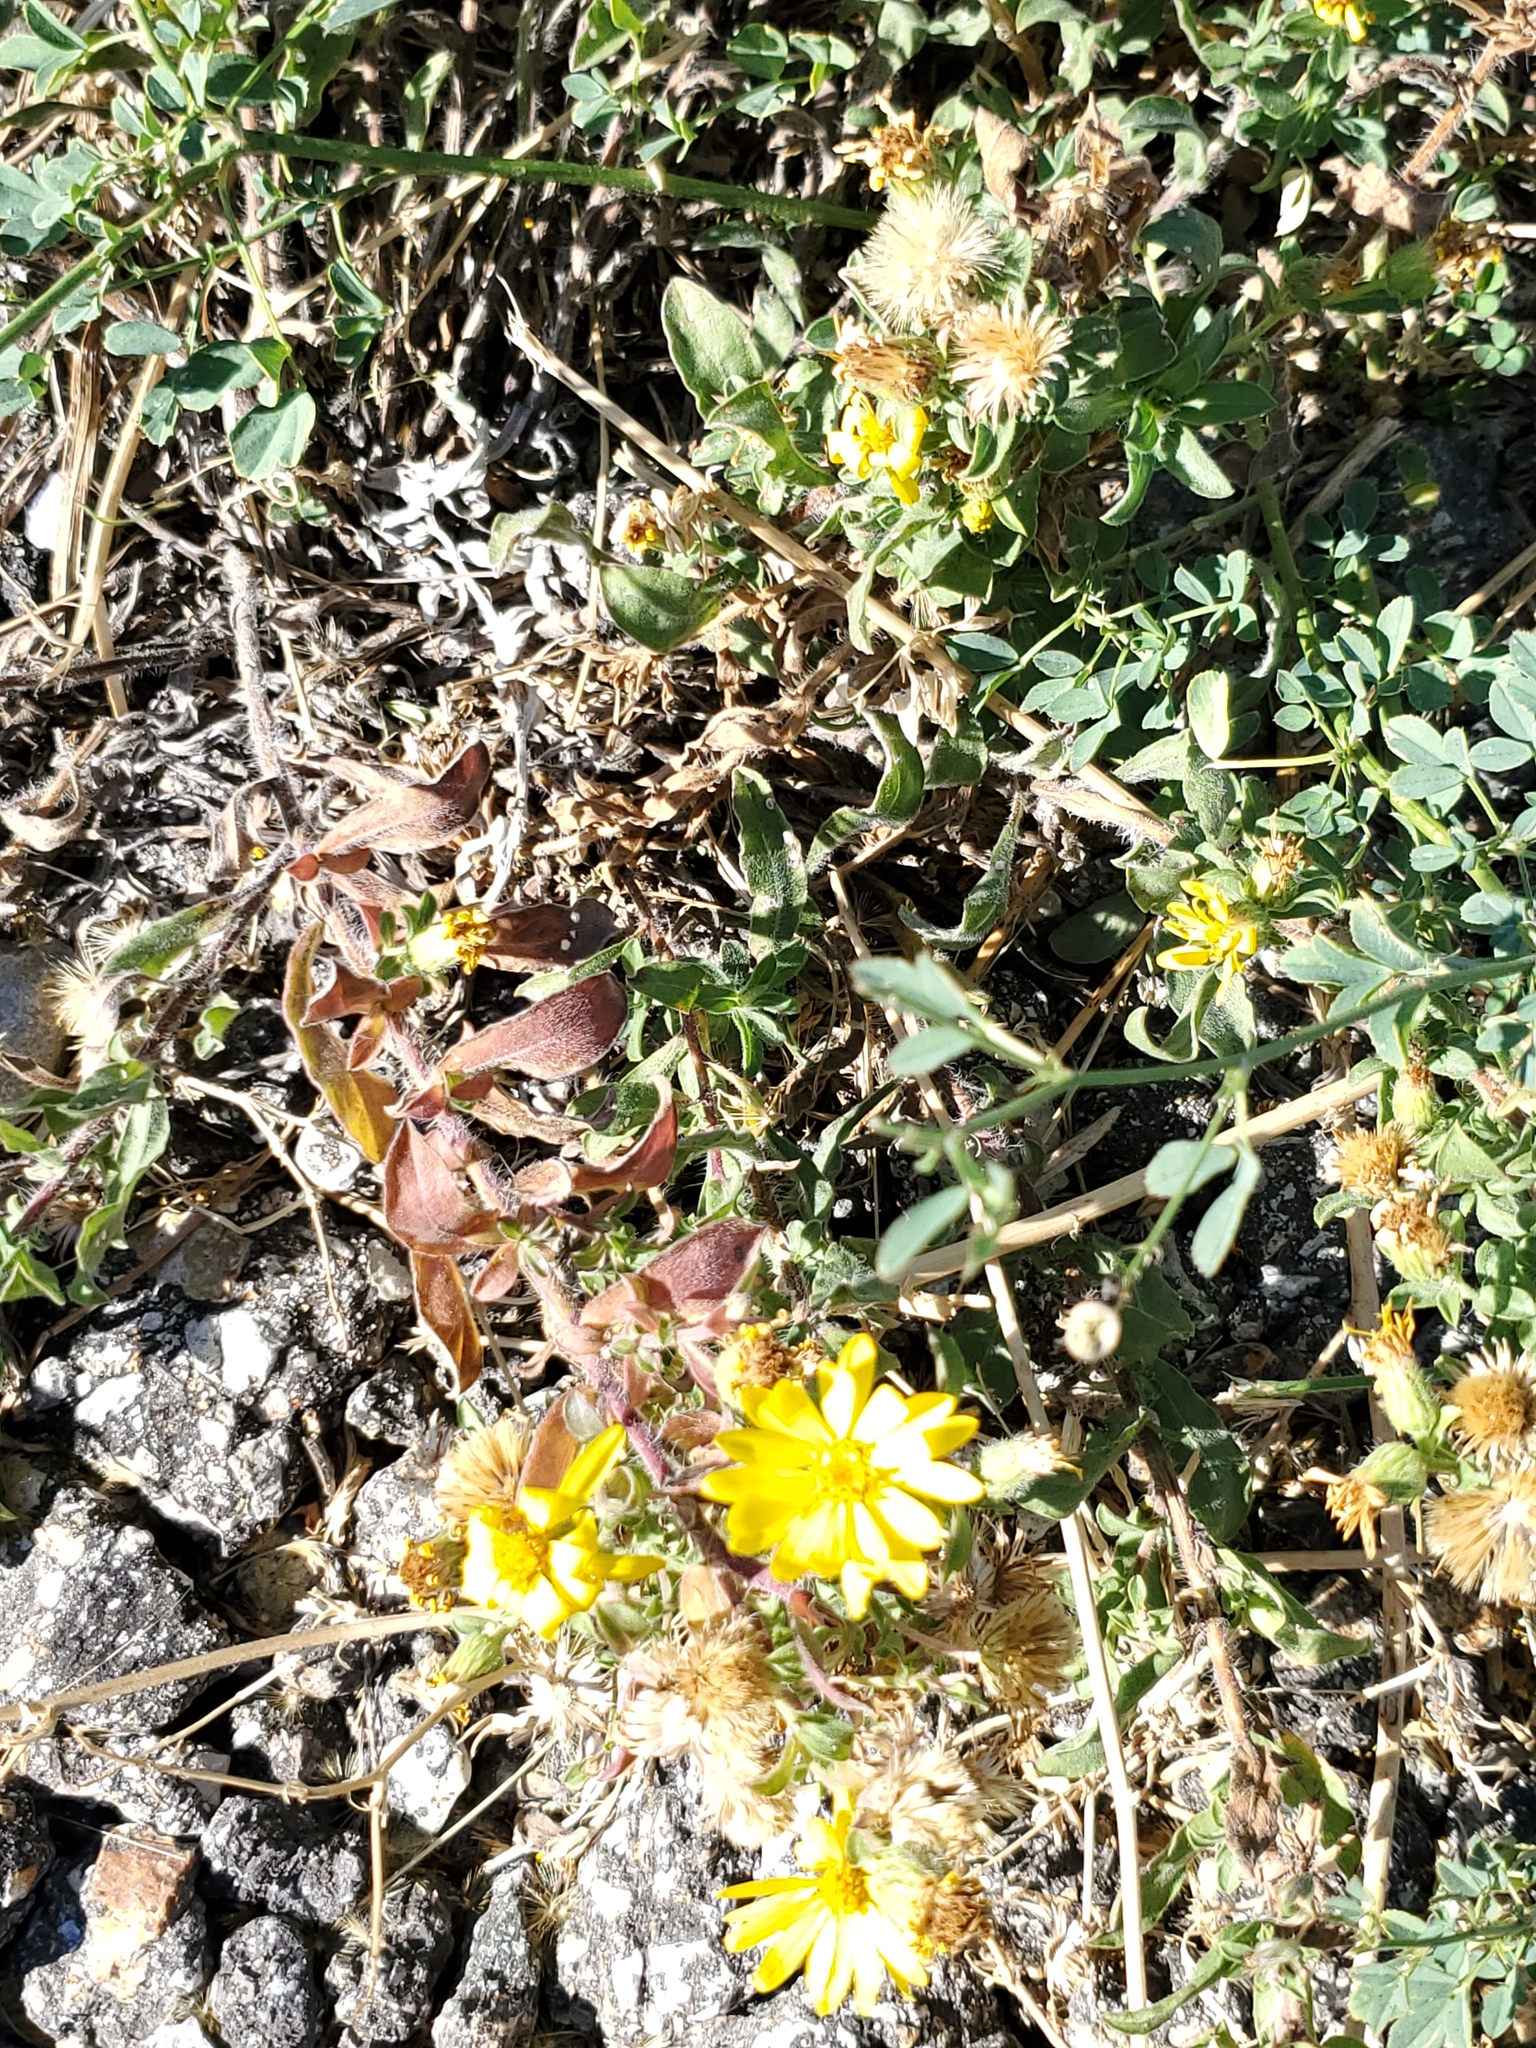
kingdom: Plantae
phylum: Tracheophyta
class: Magnoliopsida
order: Asterales
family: Asteraceae
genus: Heterotheca
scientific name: Heterotheca villosa
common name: Hairy false goldenaster
